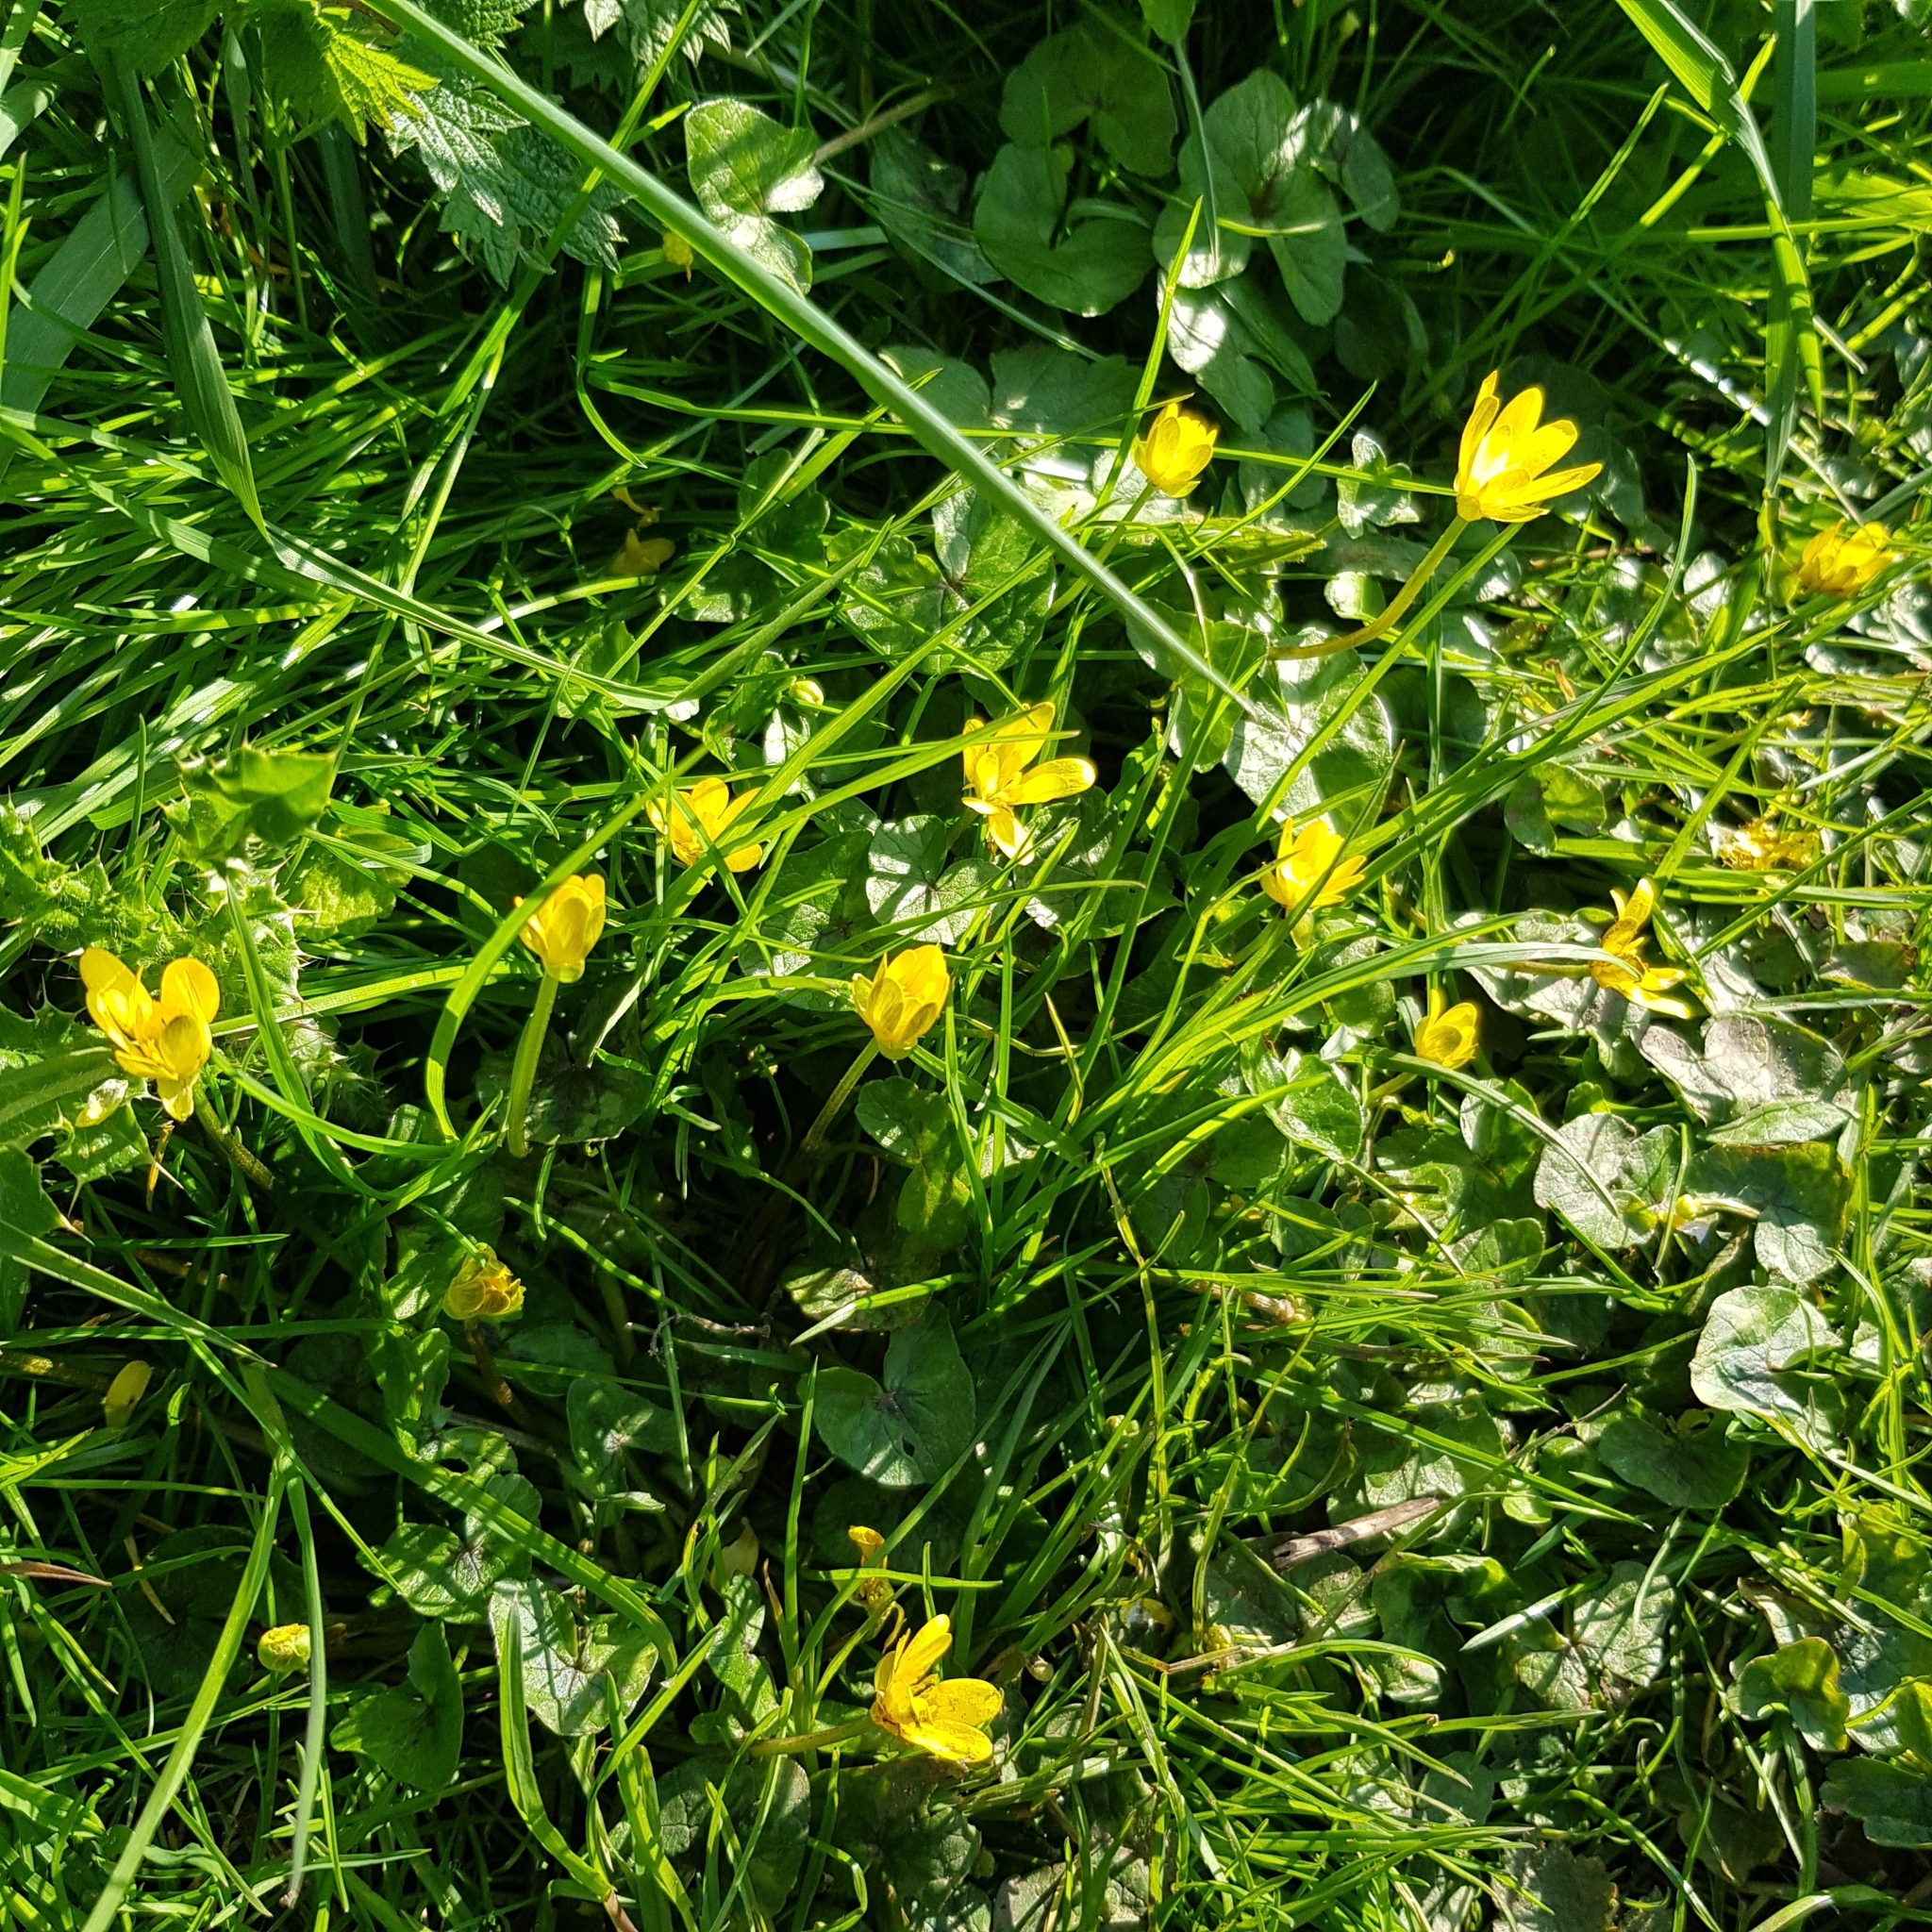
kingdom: Plantae
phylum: Tracheophyta
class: Magnoliopsida
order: Ranunculales
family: Ranunculaceae
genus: Ficaria
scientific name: Ficaria verna
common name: Lesser celandine
